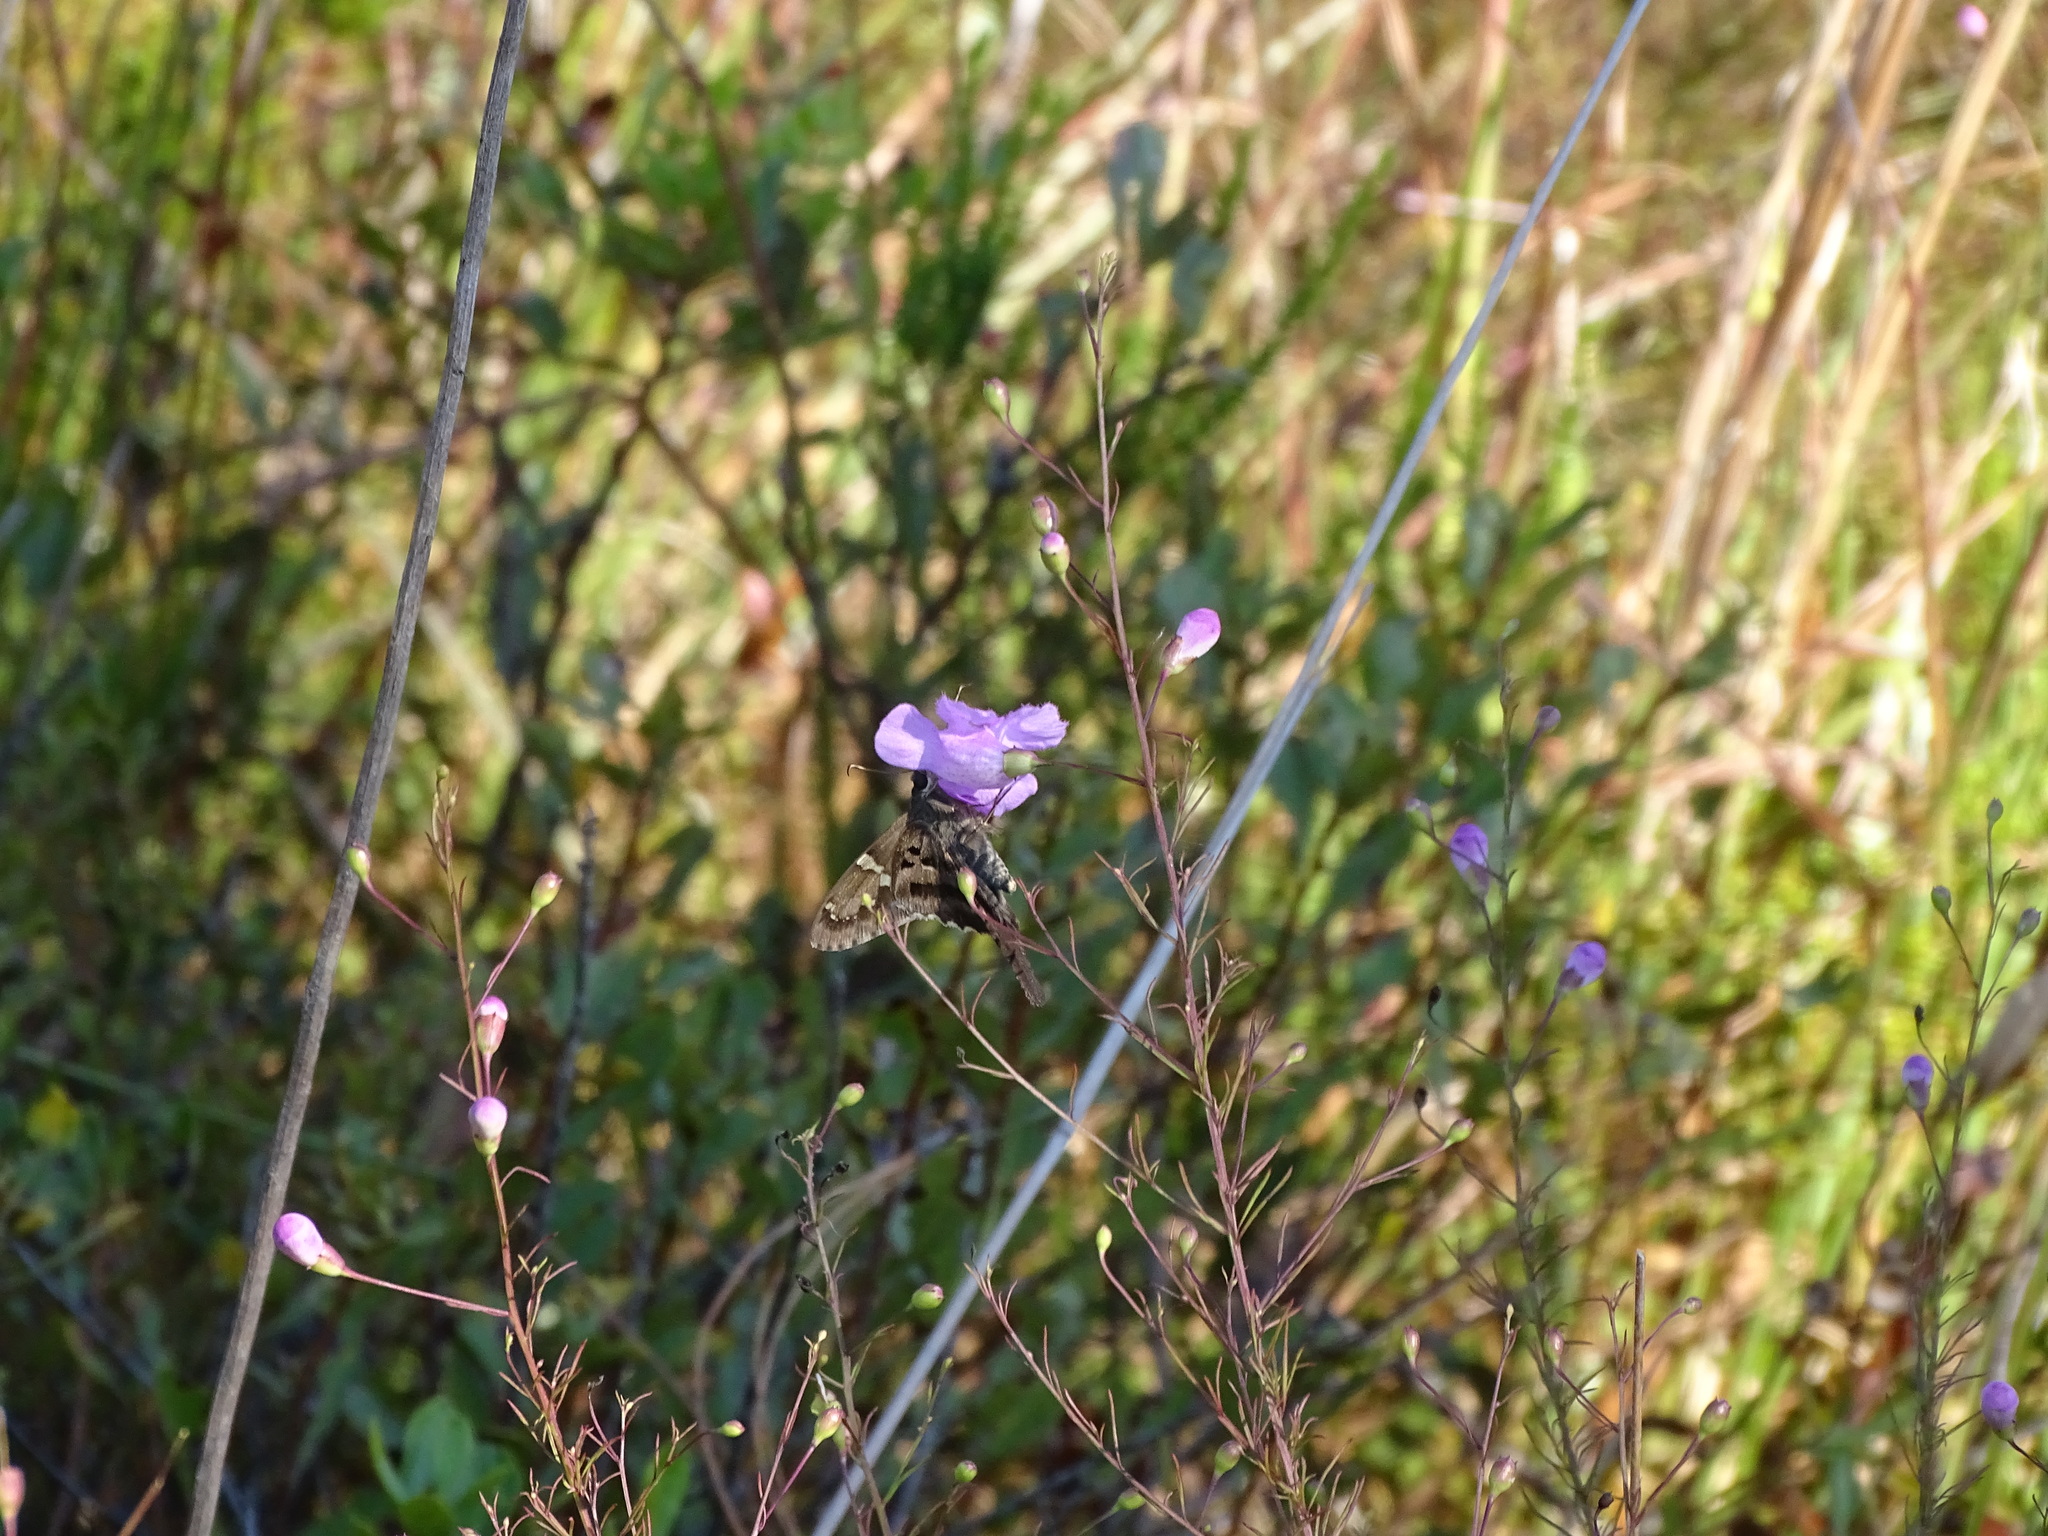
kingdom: Animalia
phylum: Arthropoda
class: Insecta
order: Lepidoptera
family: Hesperiidae
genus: Urbanus
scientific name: Urbanus proteus
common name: Long-tailed skipper
